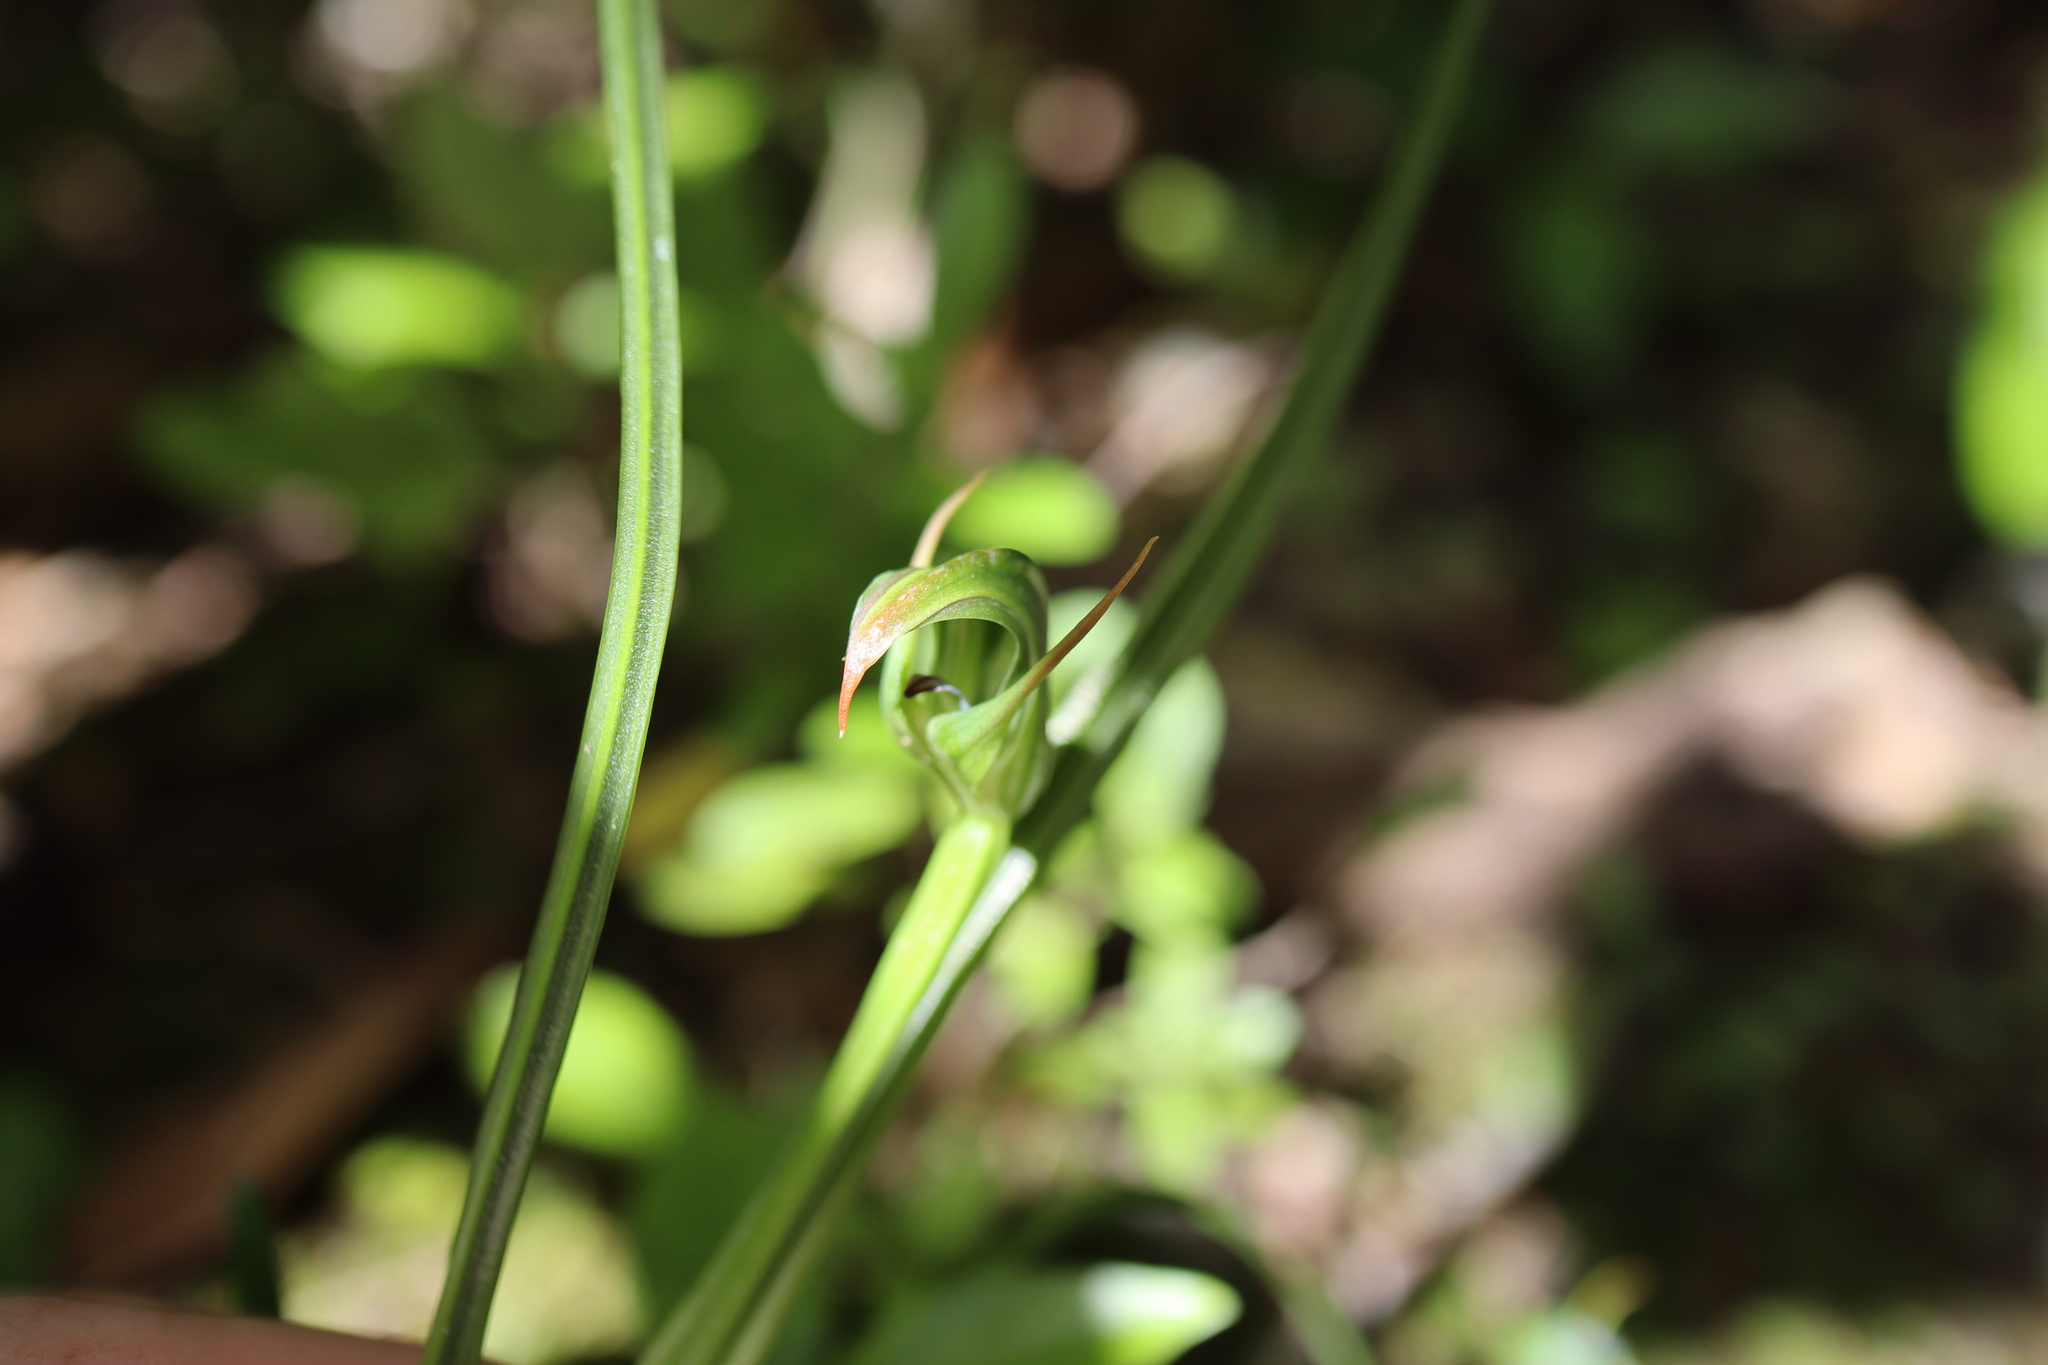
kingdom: Plantae
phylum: Tracheophyta
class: Liliopsida
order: Asparagales
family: Orchidaceae
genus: Pterostylis
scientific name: Pterostylis graminea
